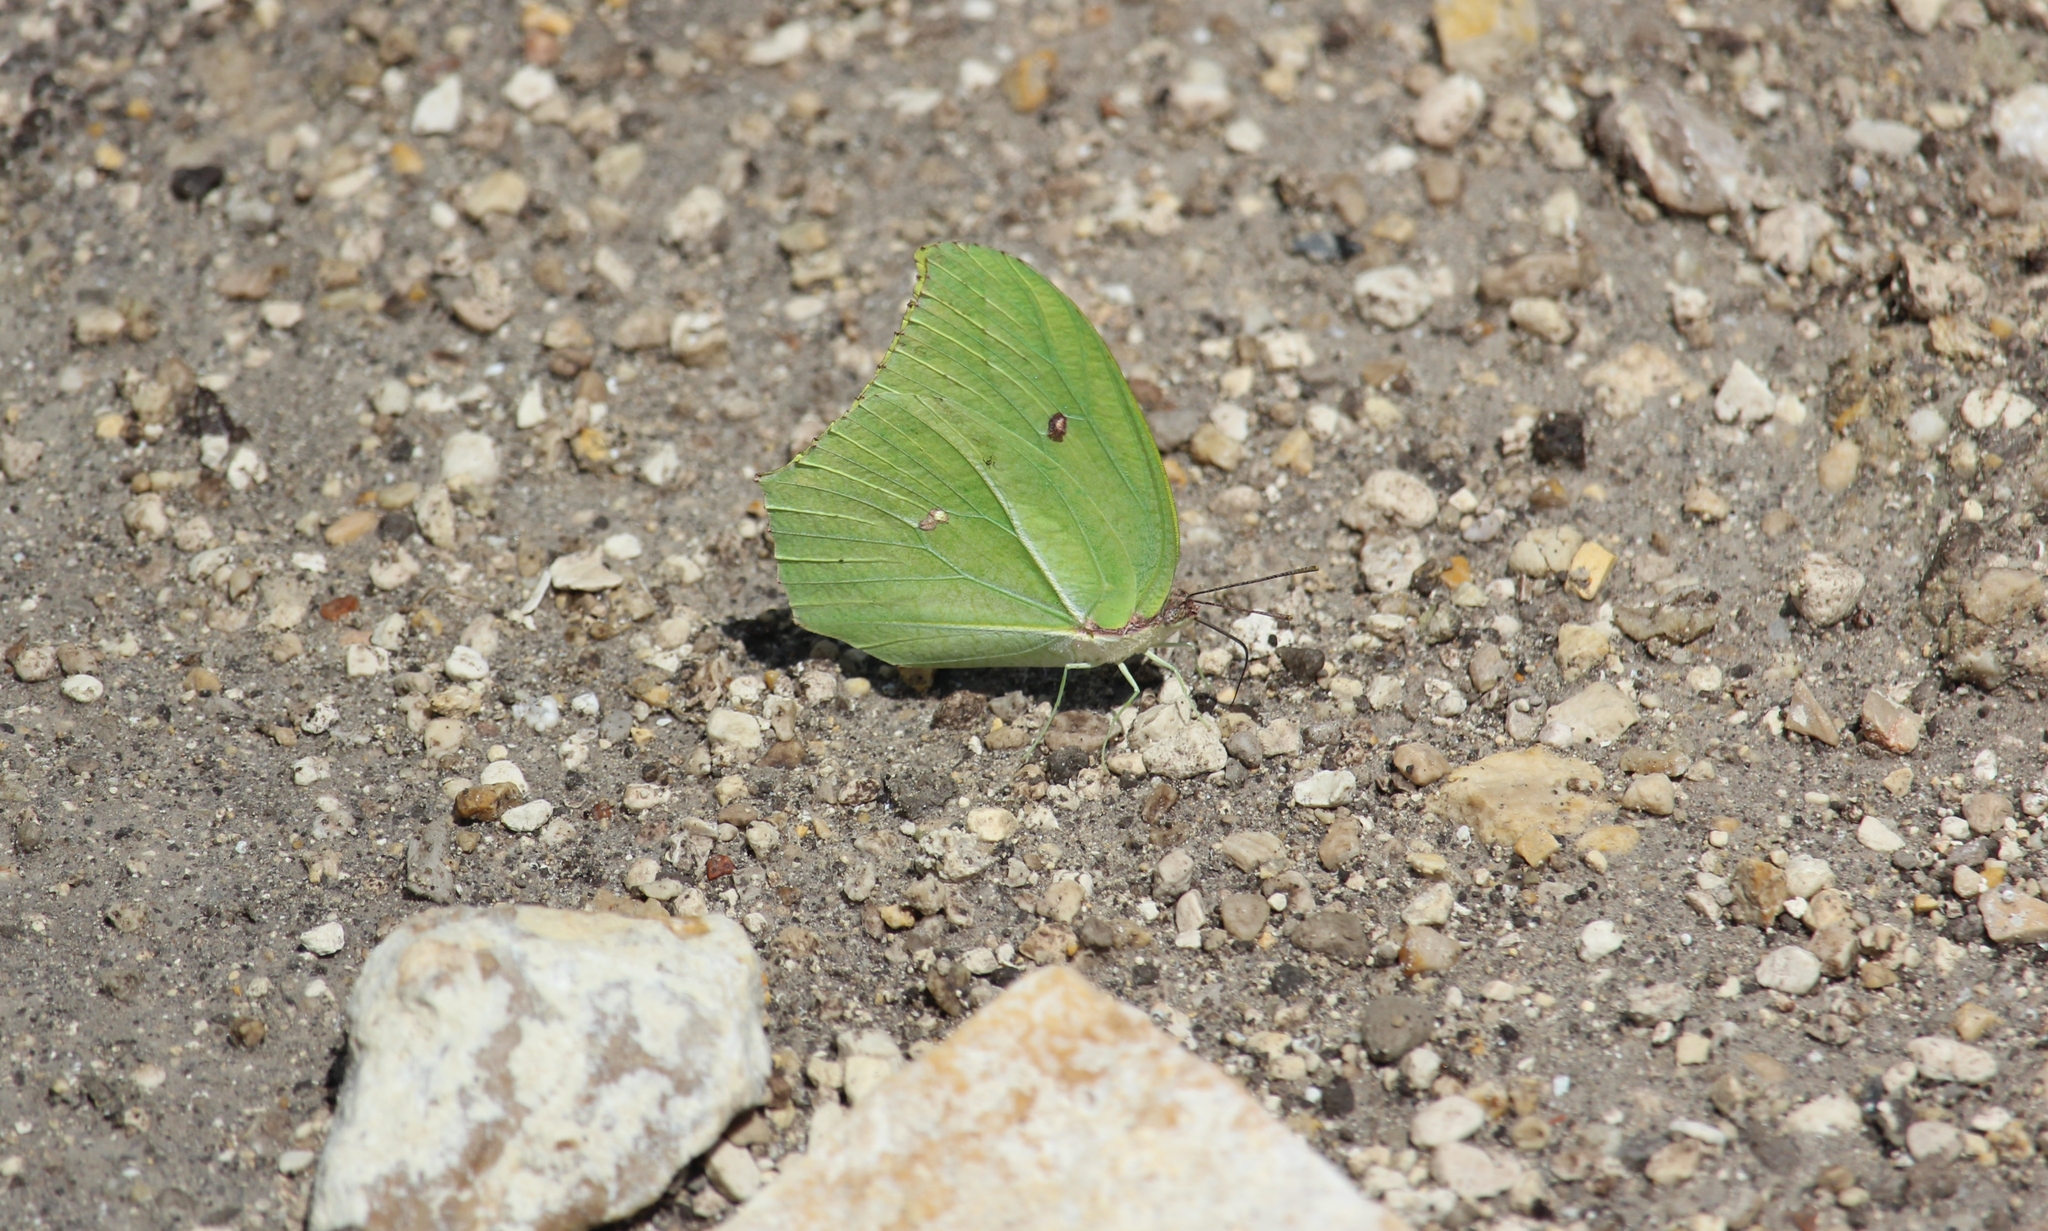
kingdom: Animalia
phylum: Arthropoda
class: Insecta
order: Lepidoptera
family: Pieridae
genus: Anteos
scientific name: Anteos maerula
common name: Angled sulphur
